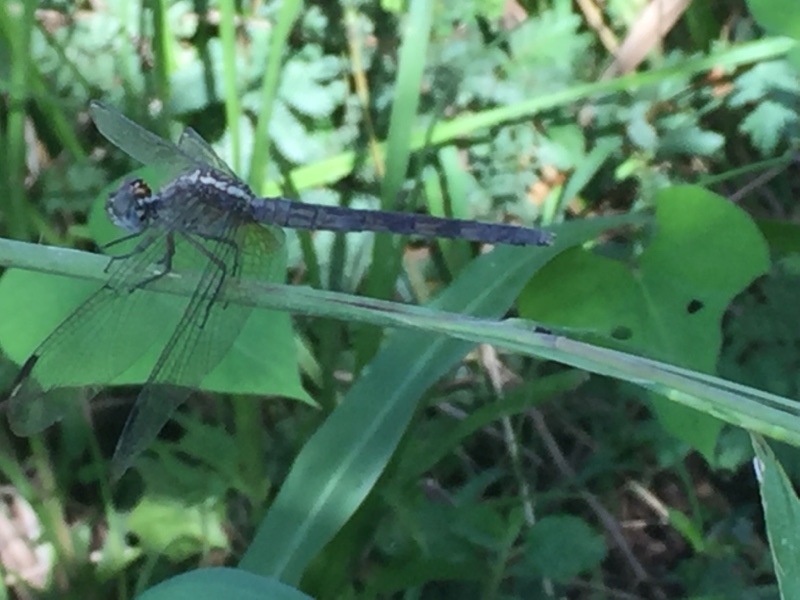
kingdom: Animalia
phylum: Arthropoda
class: Insecta
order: Odonata
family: Libellulidae
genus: Erythrodiplax
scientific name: Erythrodiplax umbrata
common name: Band-winged dragonlet
